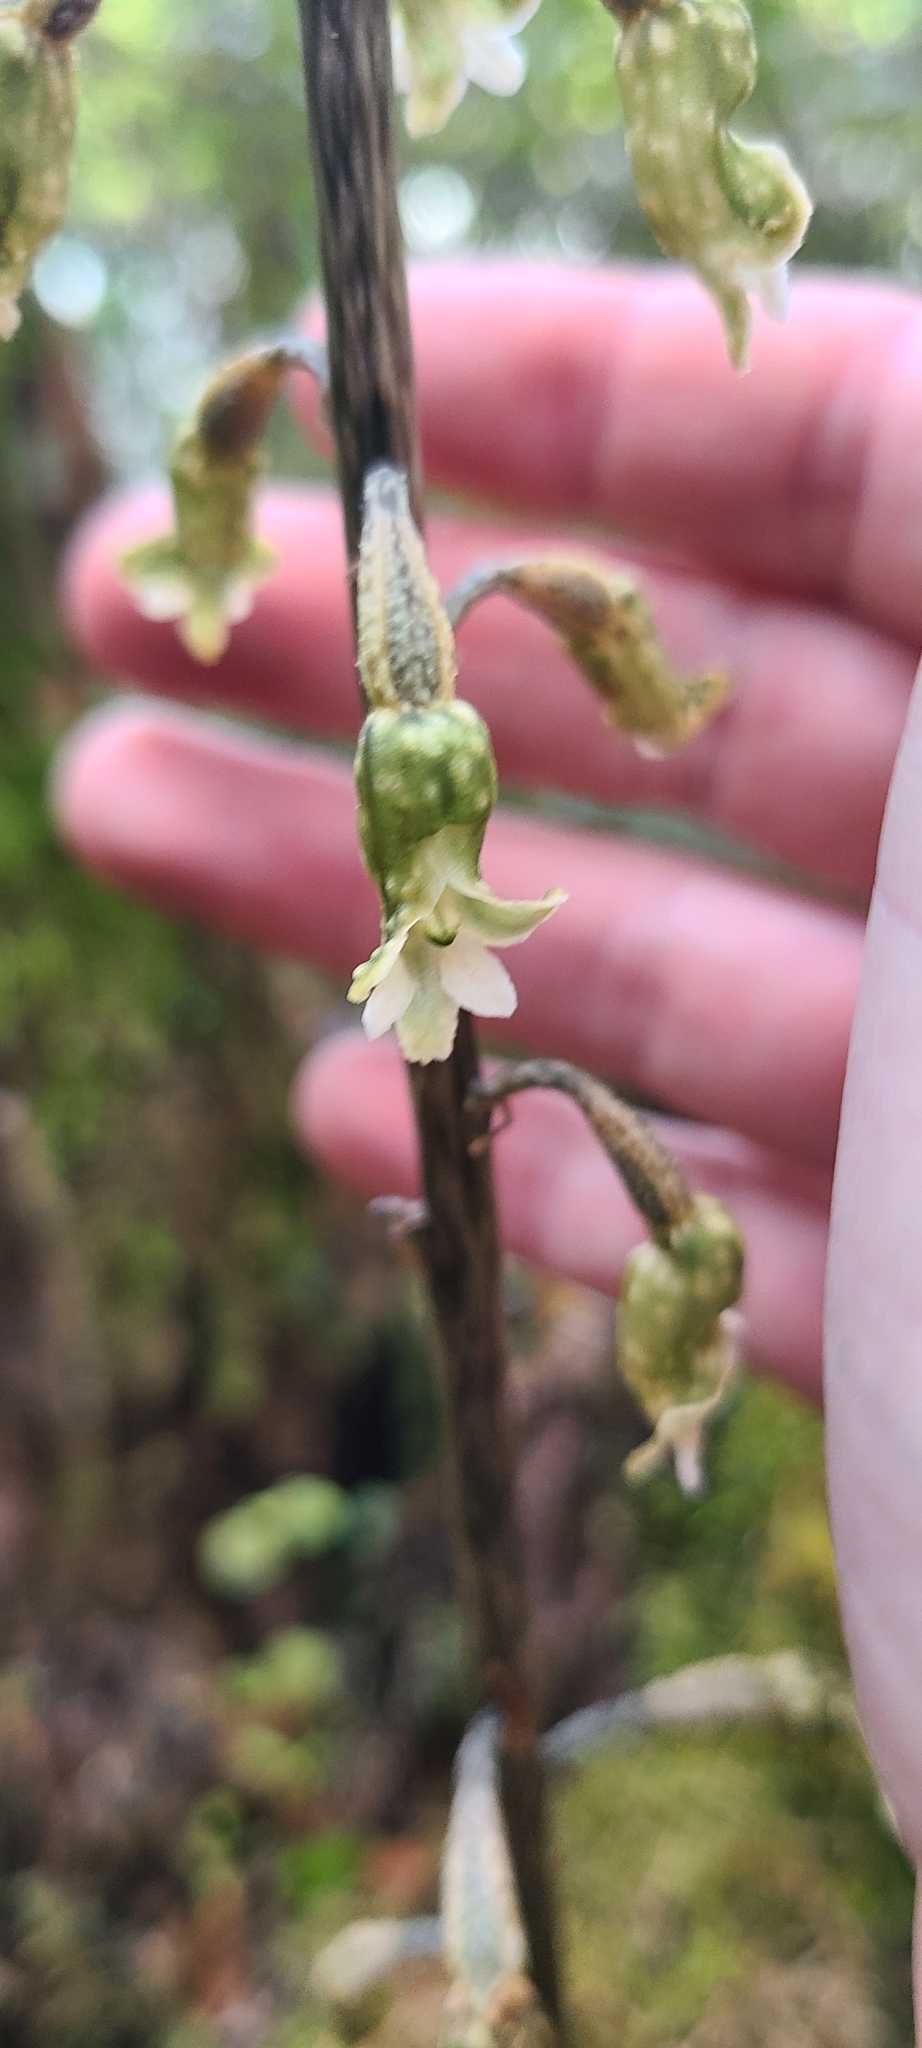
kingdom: Plantae
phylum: Tracheophyta
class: Liliopsida
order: Asparagales
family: Orchidaceae
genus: Gastrodia
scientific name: Gastrodia cunninghamii
